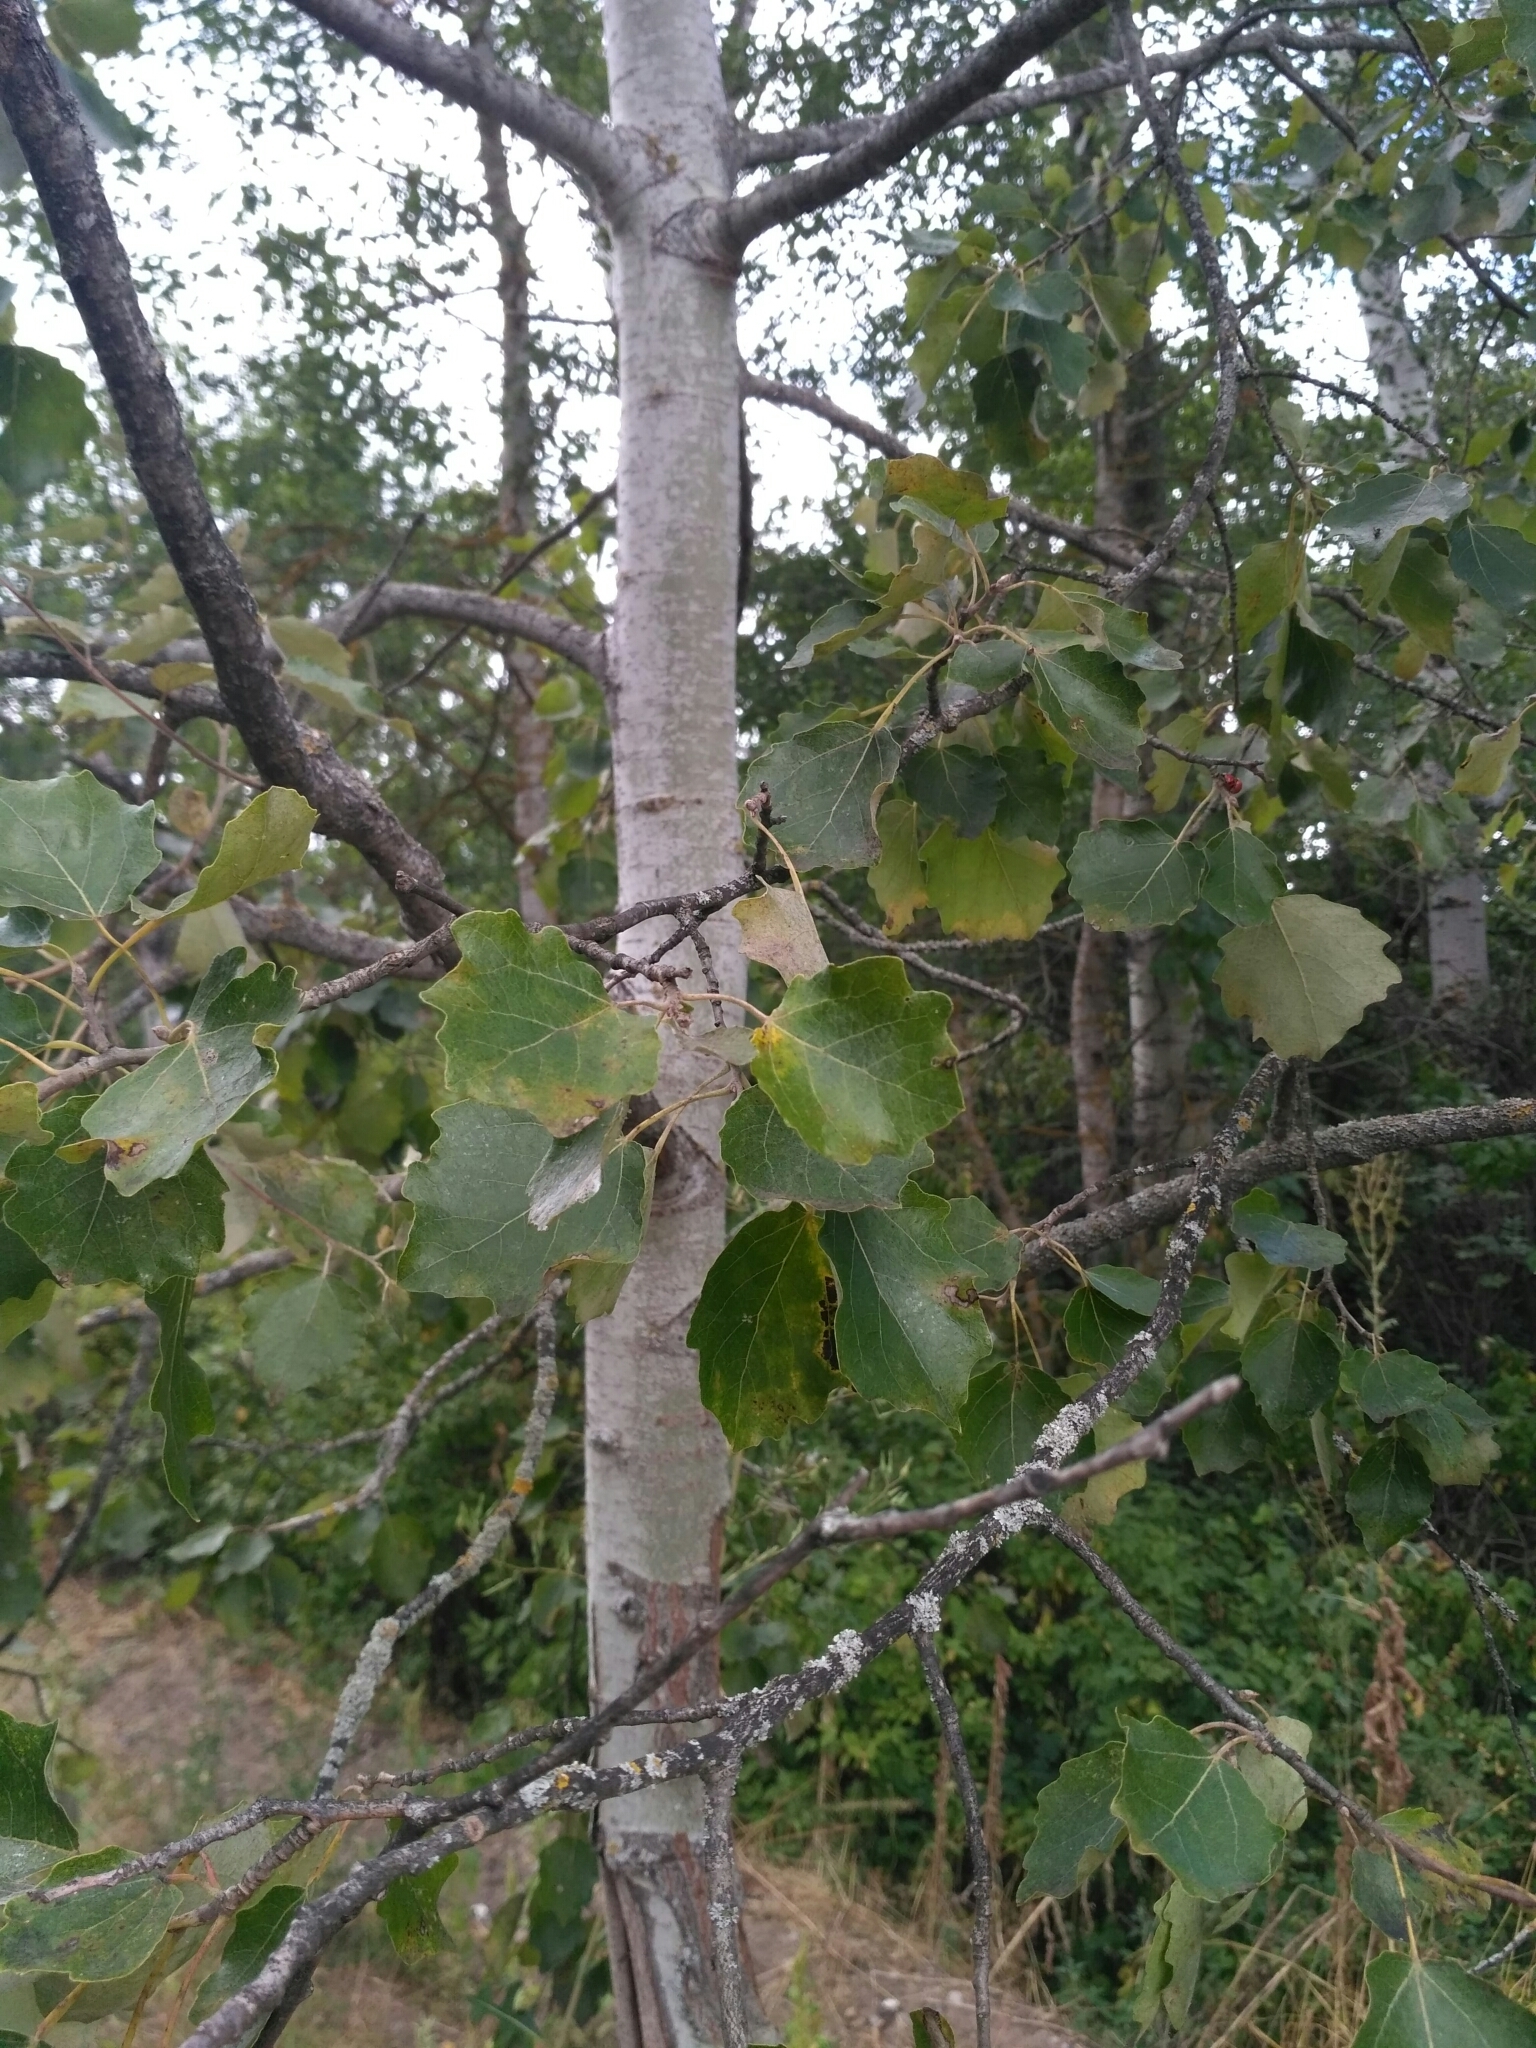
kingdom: Plantae
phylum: Tracheophyta
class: Magnoliopsida
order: Malpighiales
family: Salicaceae
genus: Populus
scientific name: Populus tremula
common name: European aspen
